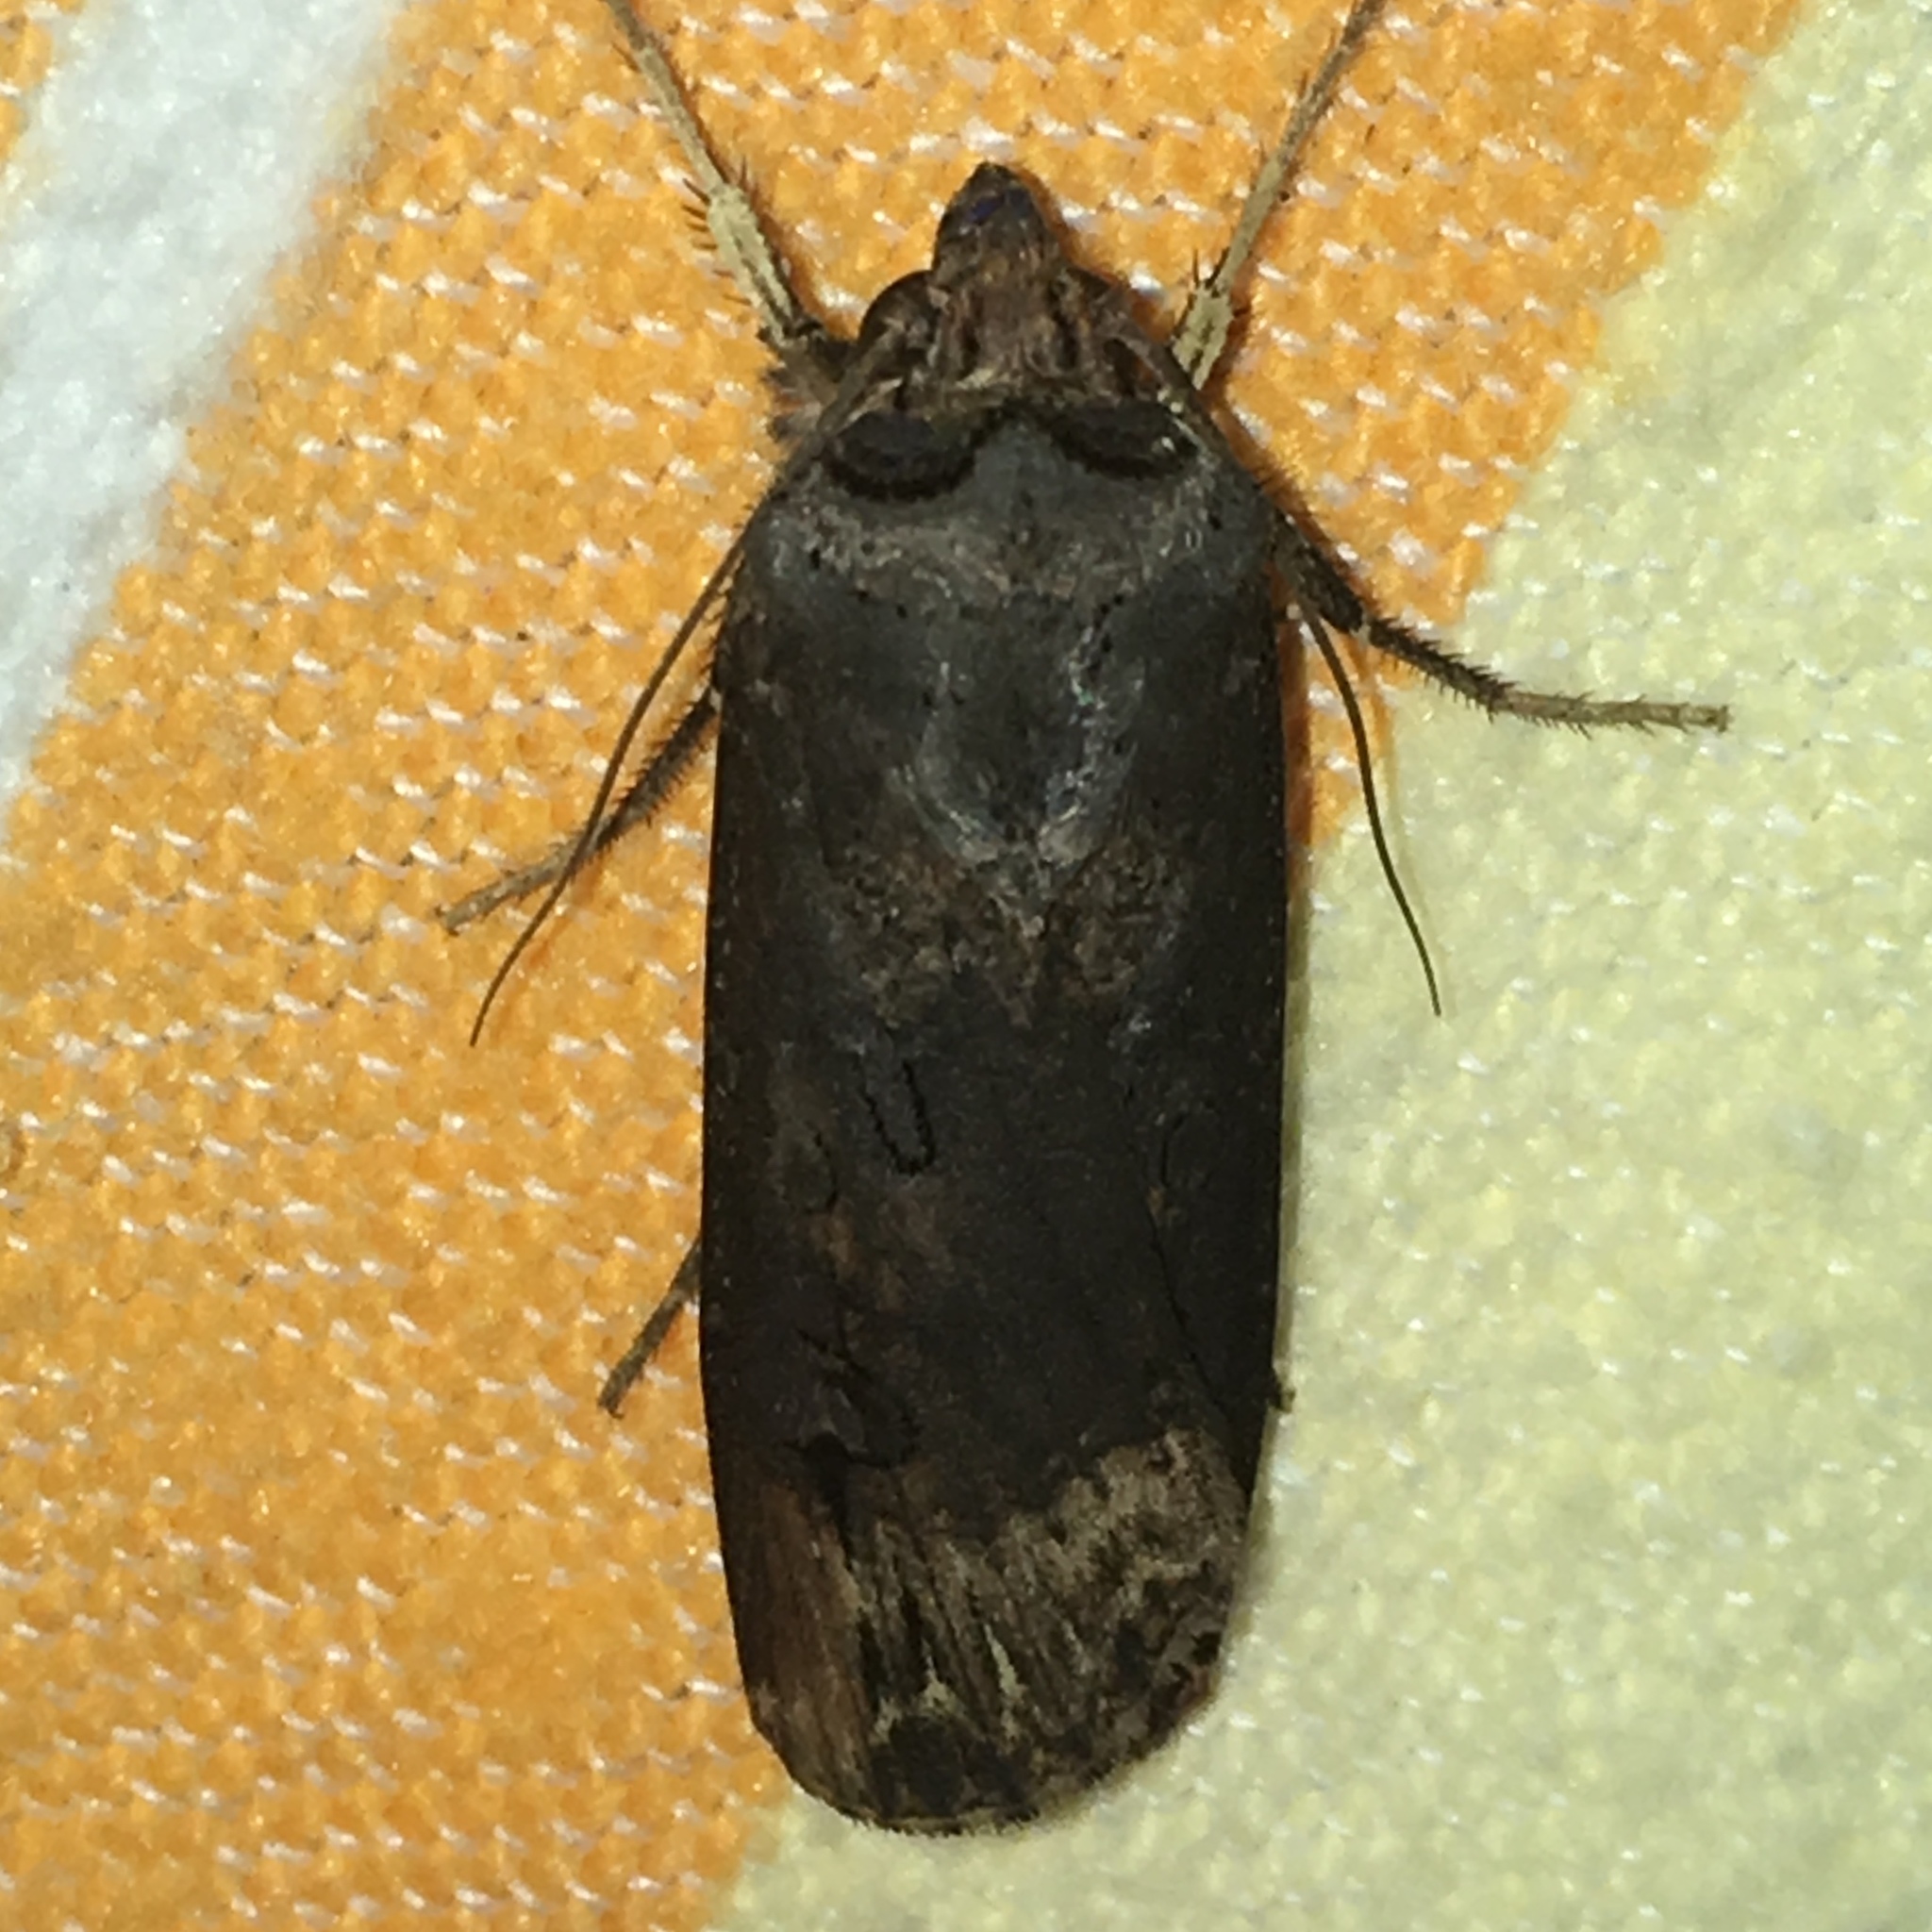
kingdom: Animalia
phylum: Arthropoda
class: Insecta
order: Lepidoptera
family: Noctuidae
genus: Agrotis
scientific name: Agrotis ipsilon
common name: Dark sword-grass
